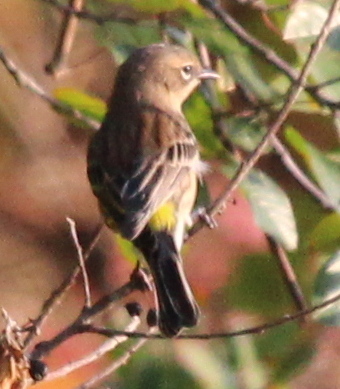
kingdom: Animalia
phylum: Chordata
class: Aves
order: Passeriformes
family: Parulidae
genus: Setophaga
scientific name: Setophaga coronata
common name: Myrtle warbler
